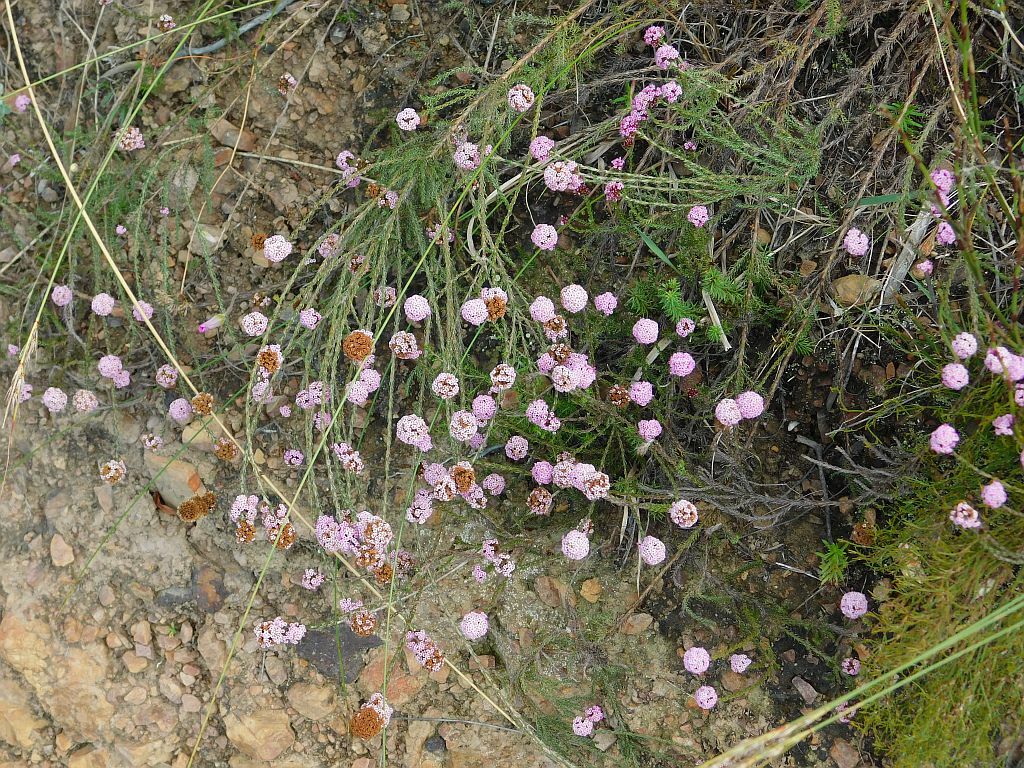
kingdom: Plantae
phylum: Tracheophyta
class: Magnoliopsida
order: Asterales
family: Asteraceae
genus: Stoebe
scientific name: Stoebe capitata
